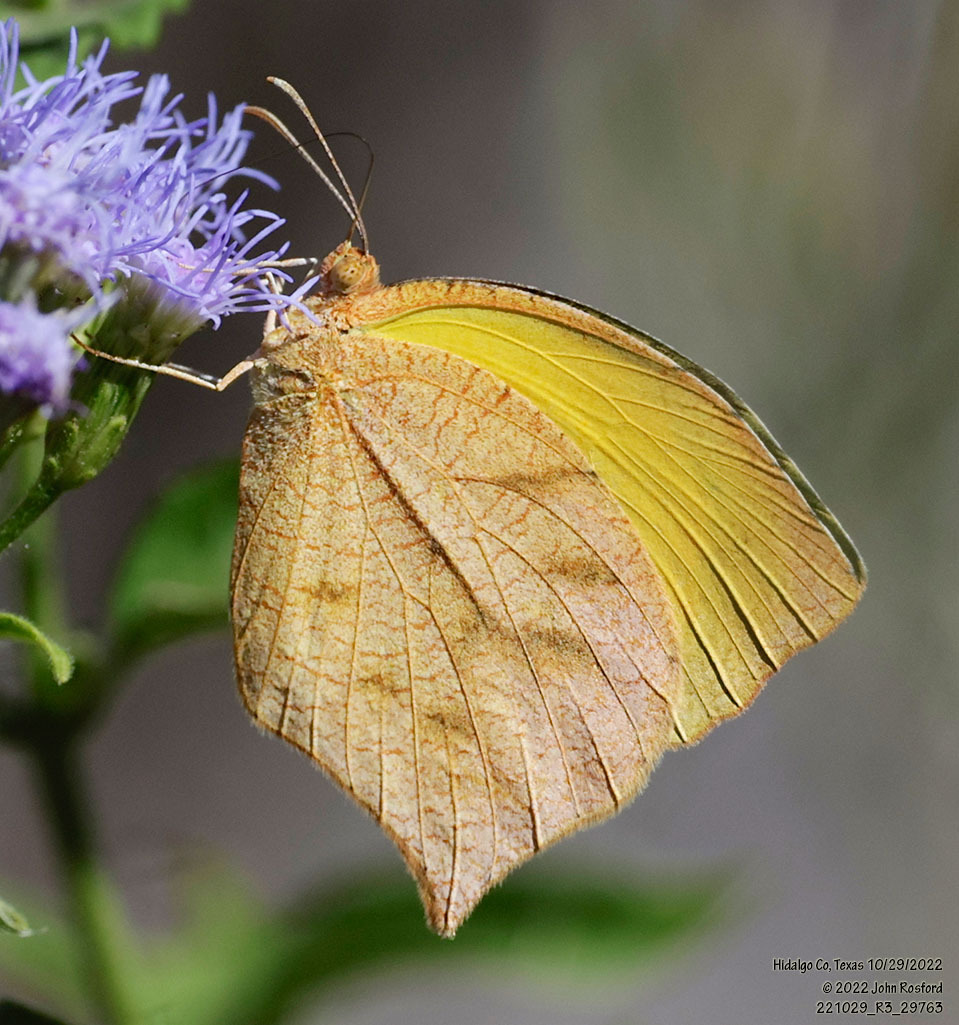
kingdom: Animalia
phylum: Arthropoda
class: Insecta
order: Lepidoptera
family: Pieridae
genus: Pyrisitia
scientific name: Pyrisitia proterpia
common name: Tailed orange
